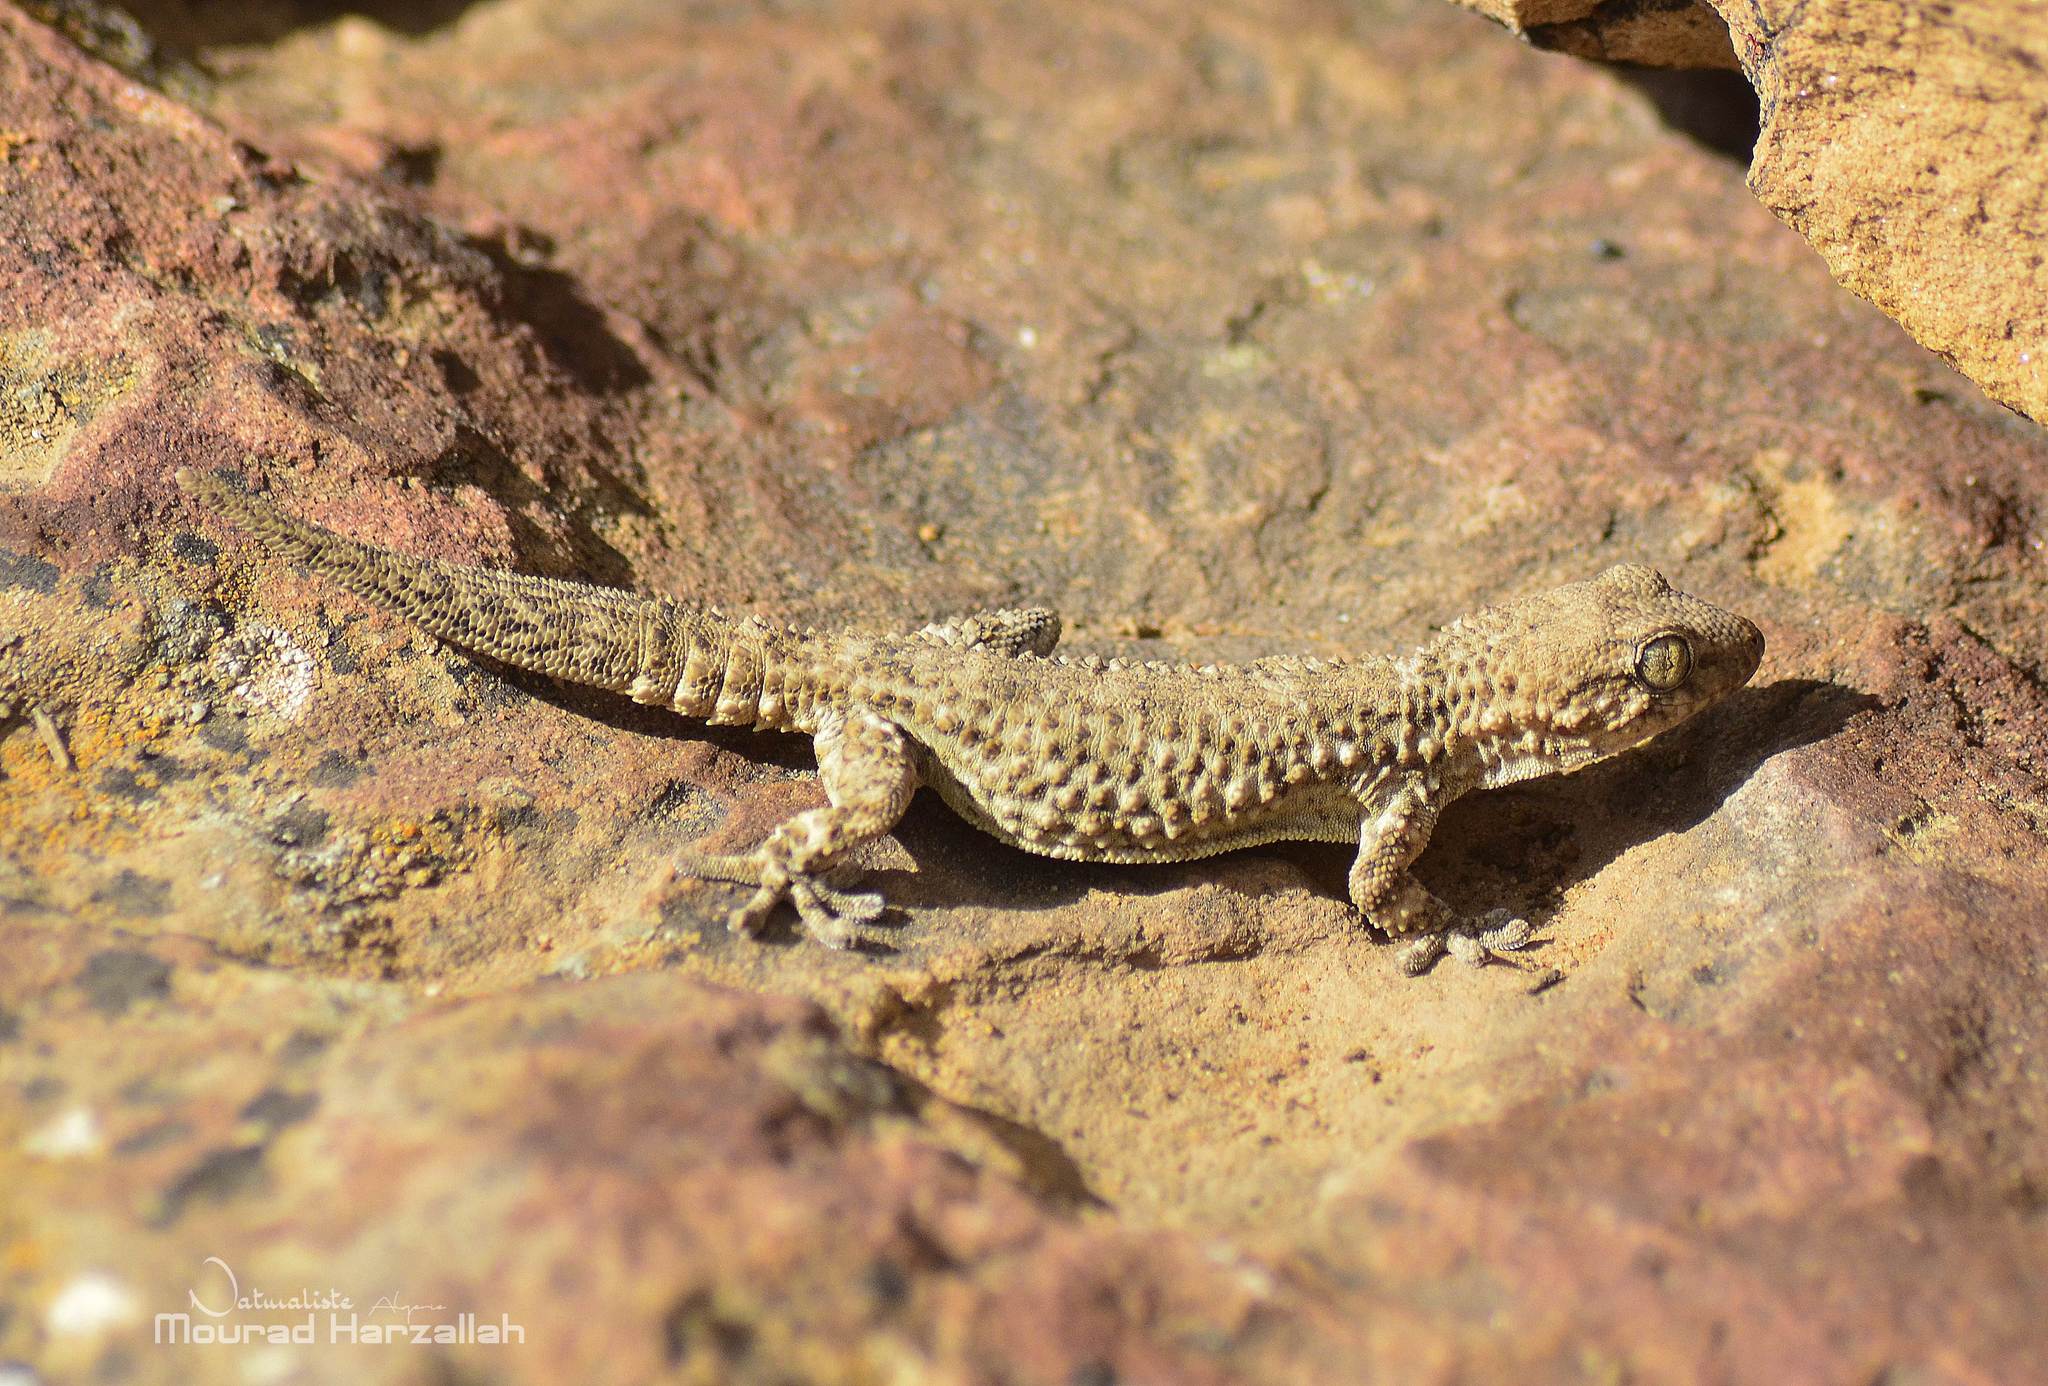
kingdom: Animalia
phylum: Chordata
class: Squamata
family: Phyllodactylidae
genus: Tarentola
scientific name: Tarentola mauritanica
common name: Moorish gecko
